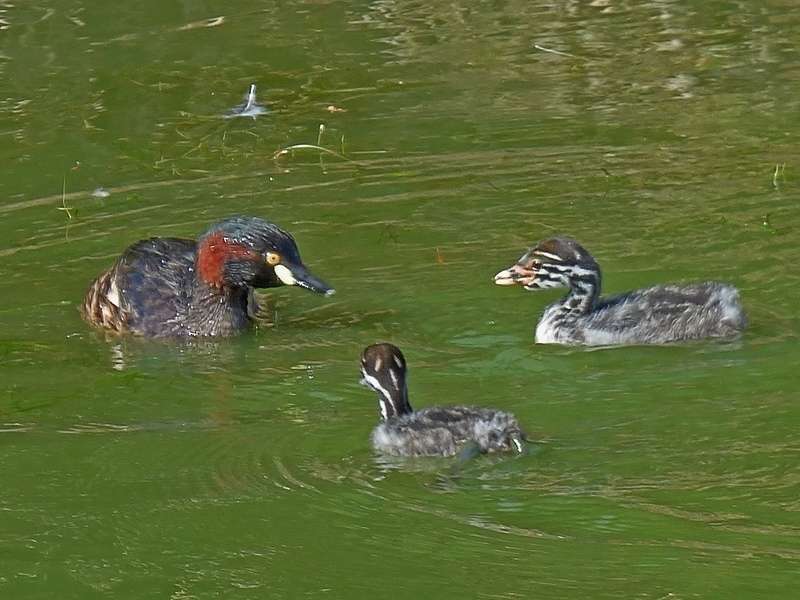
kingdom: Animalia
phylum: Chordata
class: Aves
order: Podicipediformes
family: Podicipedidae
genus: Tachybaptus
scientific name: Tachybaptus novaehollandiae
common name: Australasian grebe
